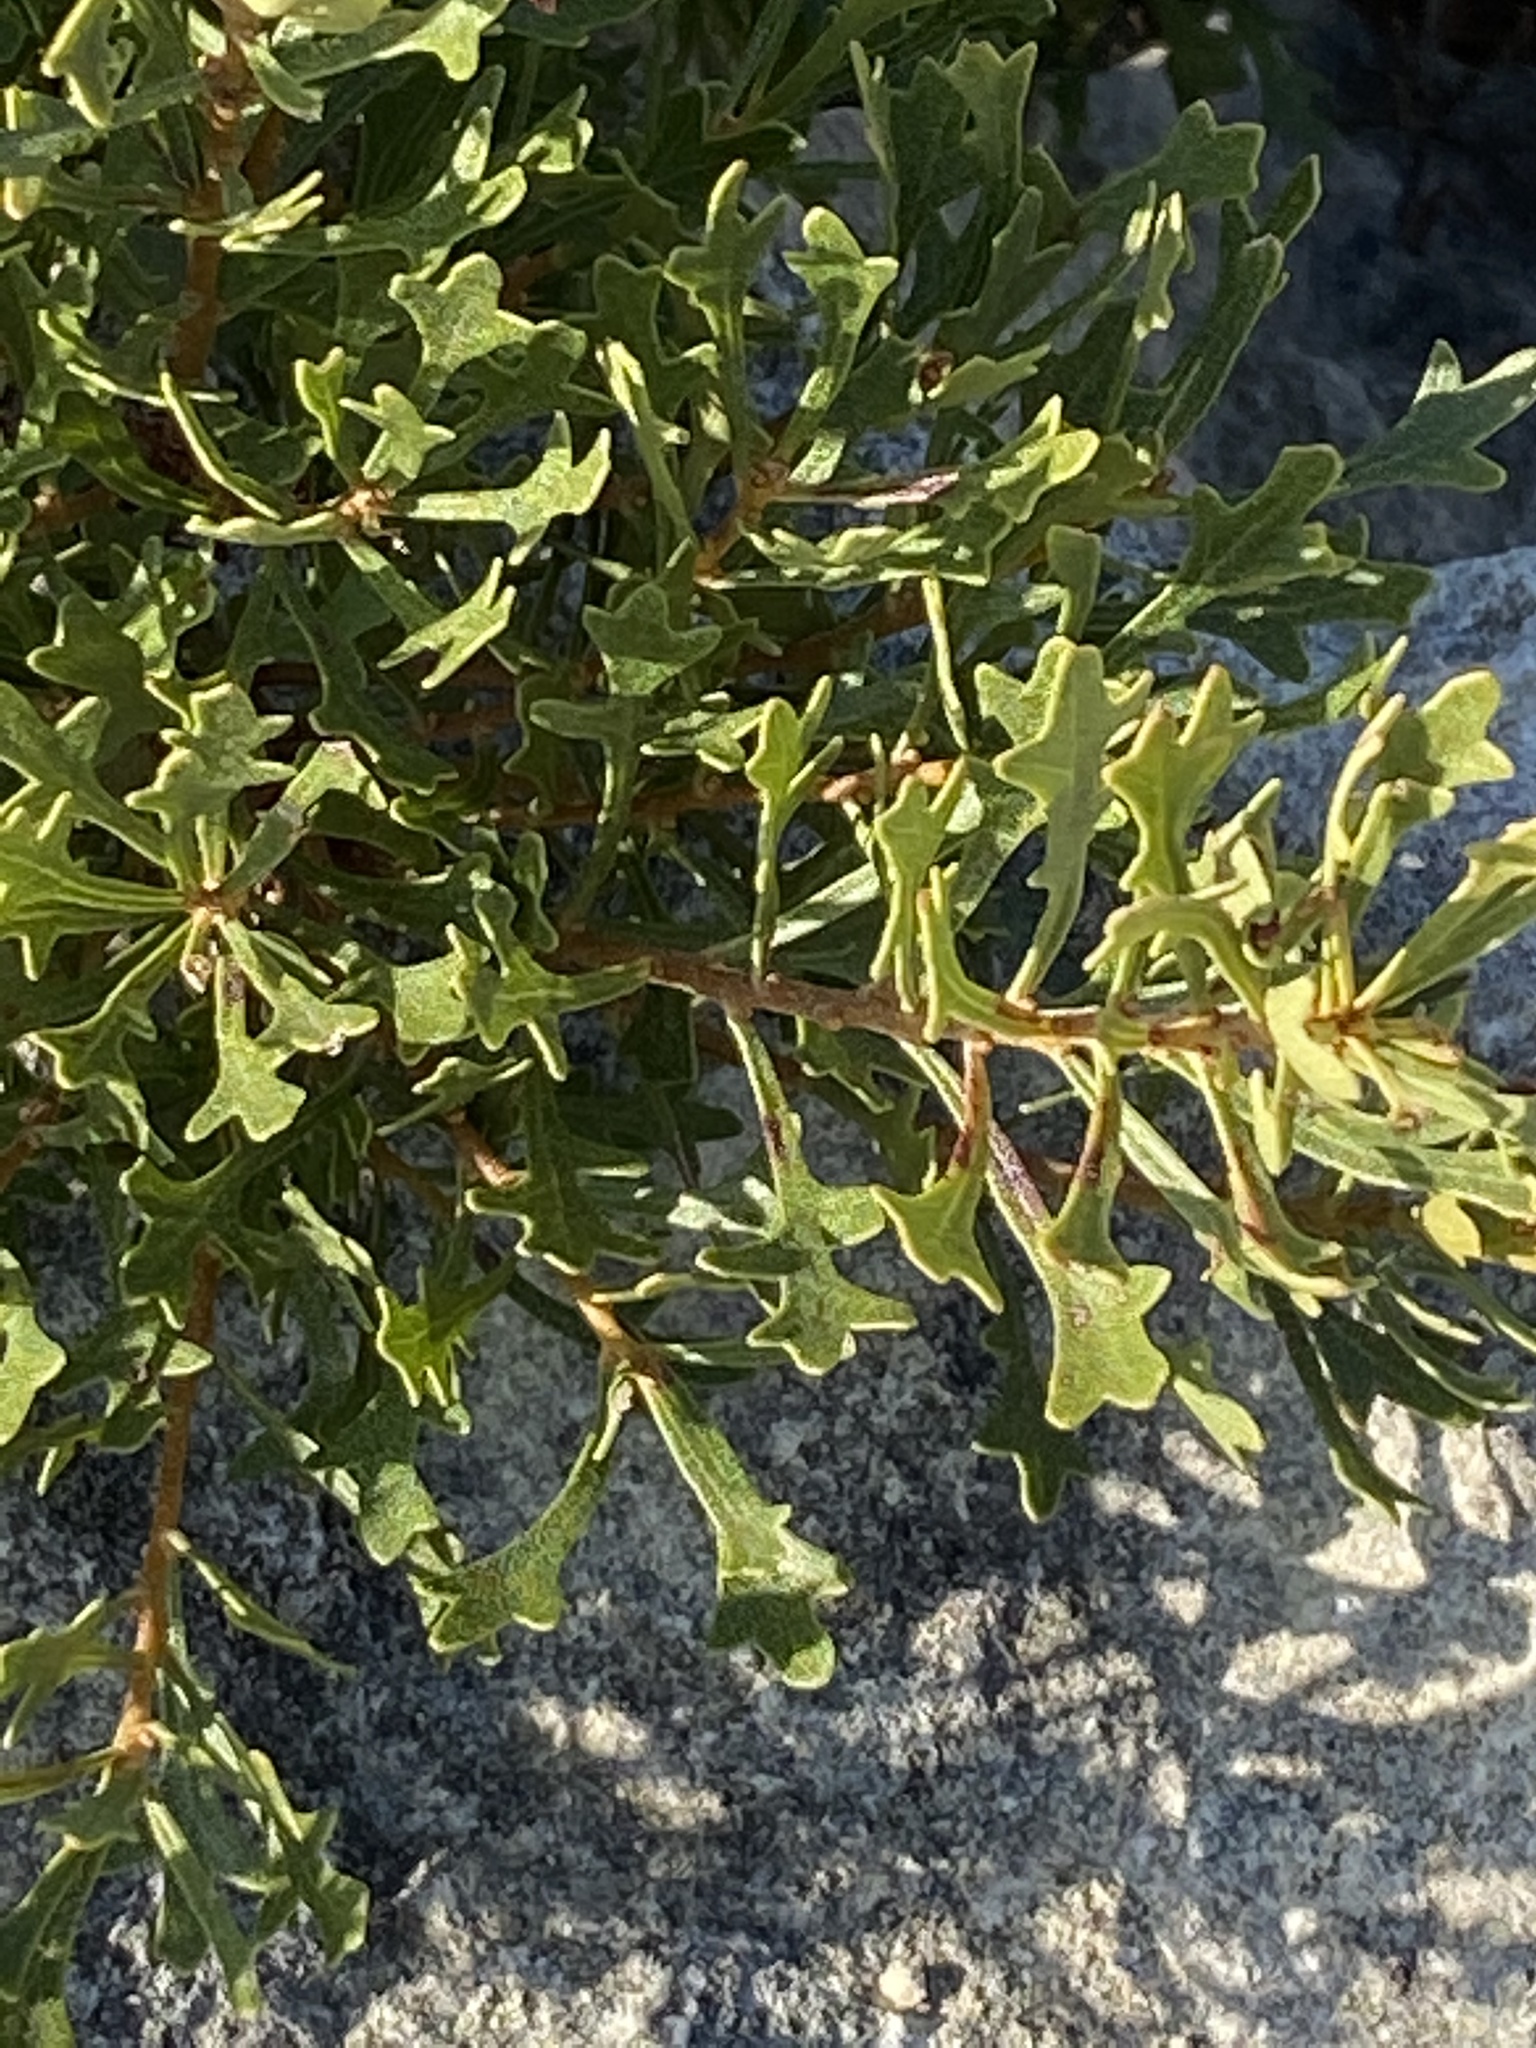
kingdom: Plantae
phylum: Tracheophyta
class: Magnoliopsida
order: Fagales
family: Myricaceae
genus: Morella
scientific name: Morella quercifolia
